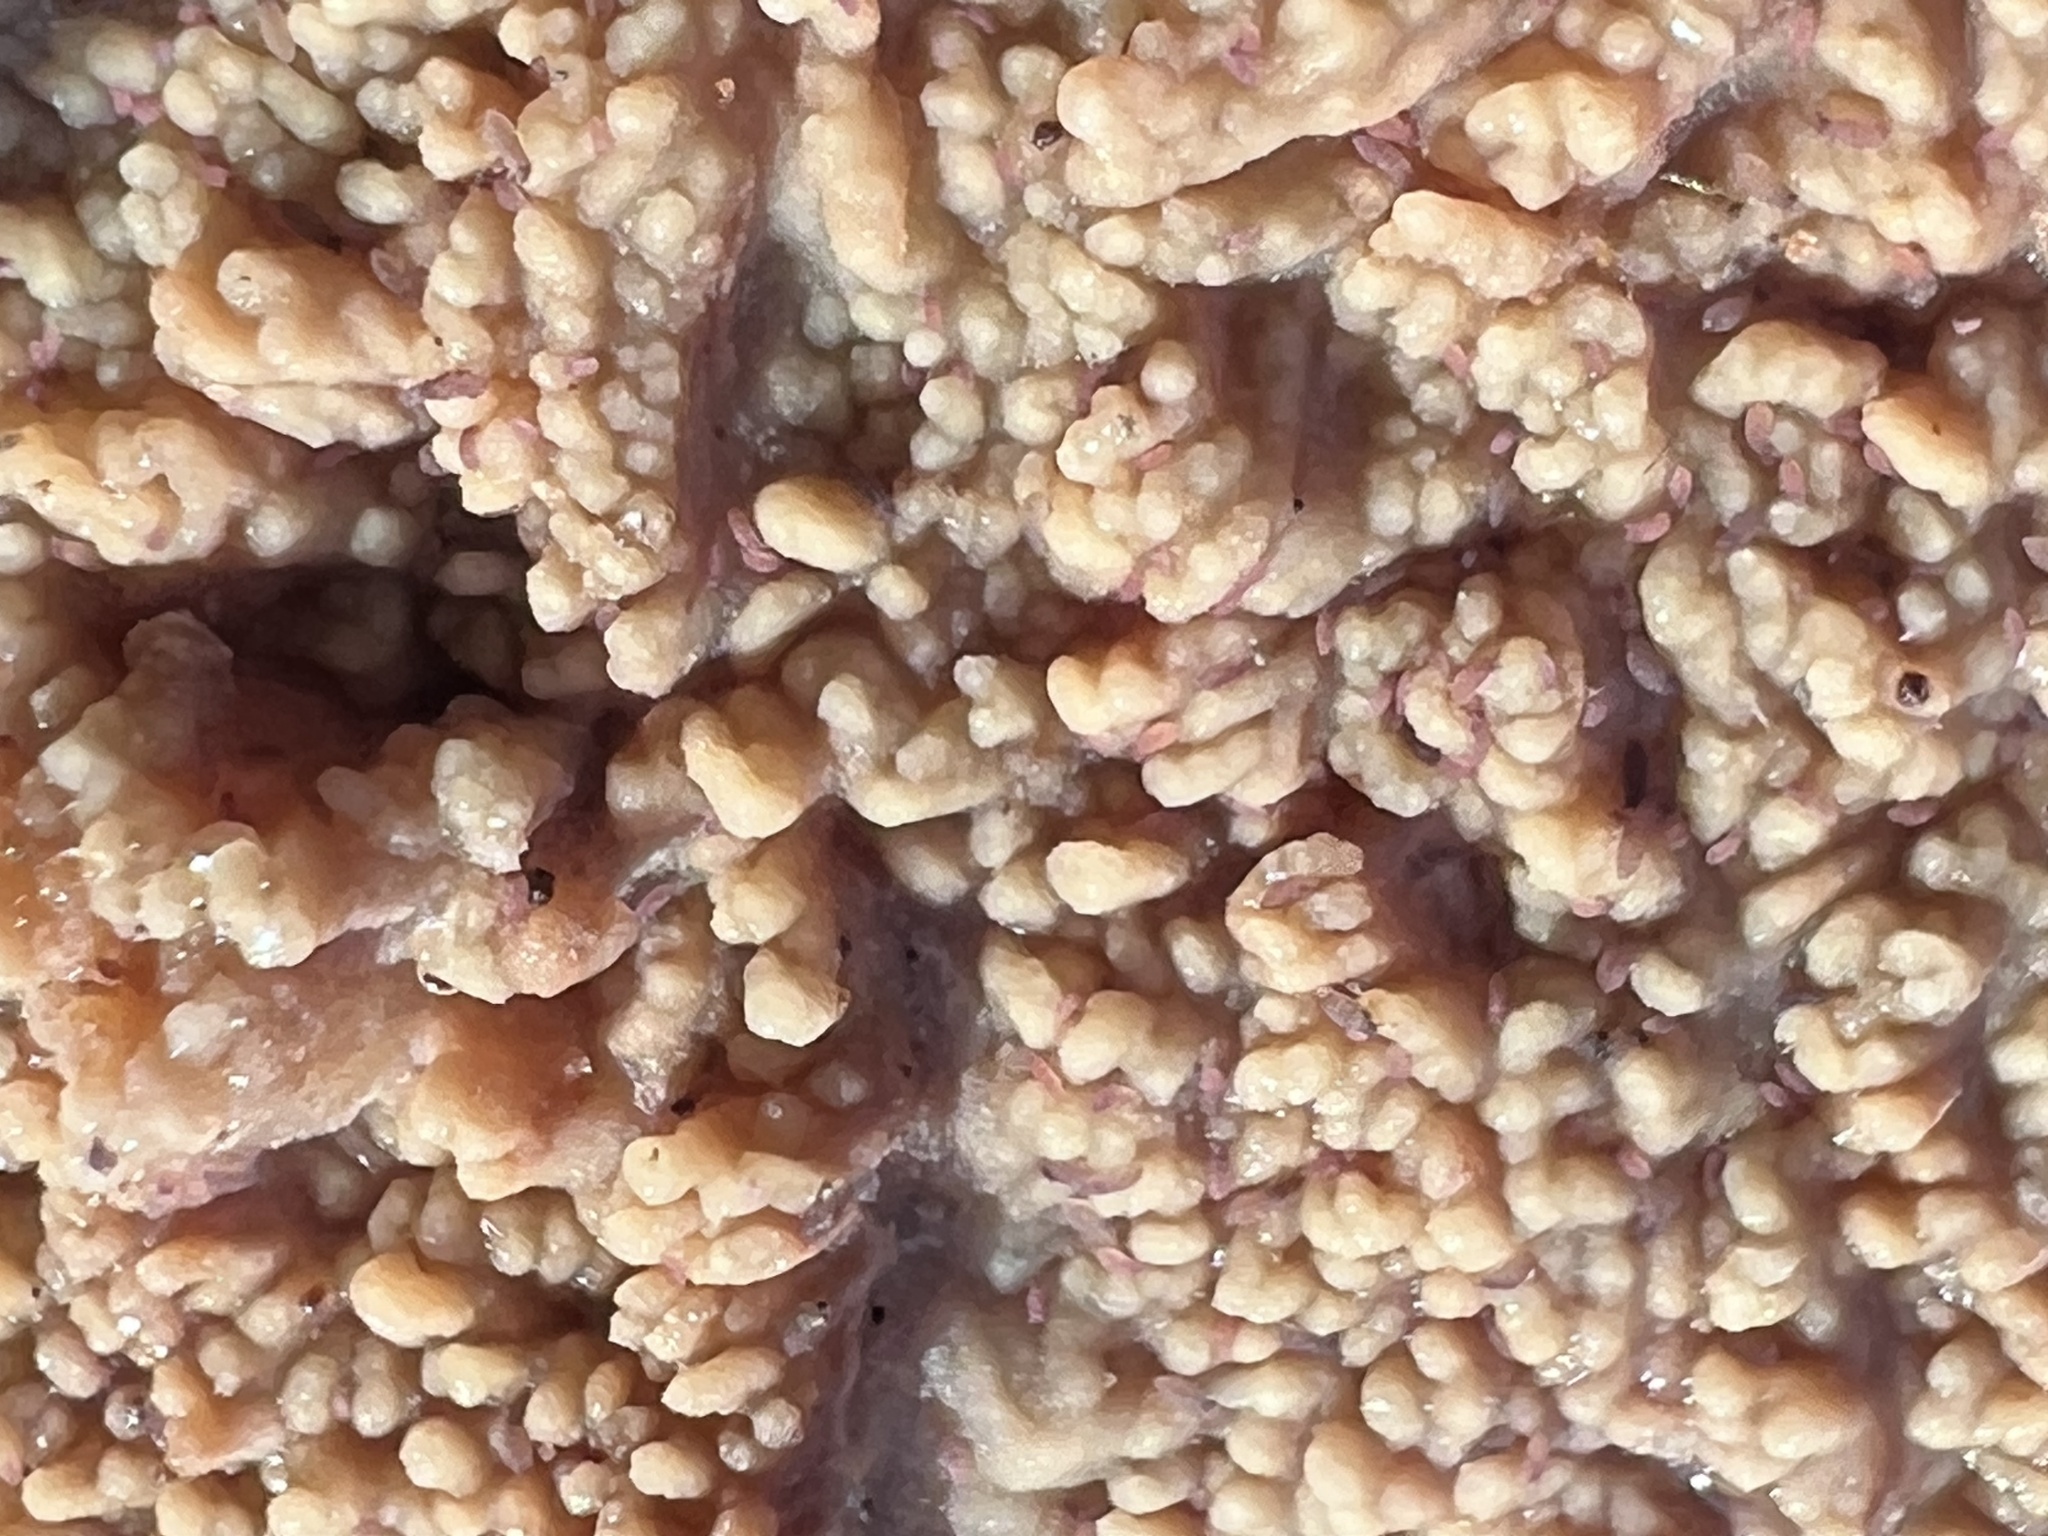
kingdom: Fungi
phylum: Basidiomycota
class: Agaricomycetes
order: Polyporales
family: Meruliaceae
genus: Phlebia
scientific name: Phlebia radiata
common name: Wrinkled crust
